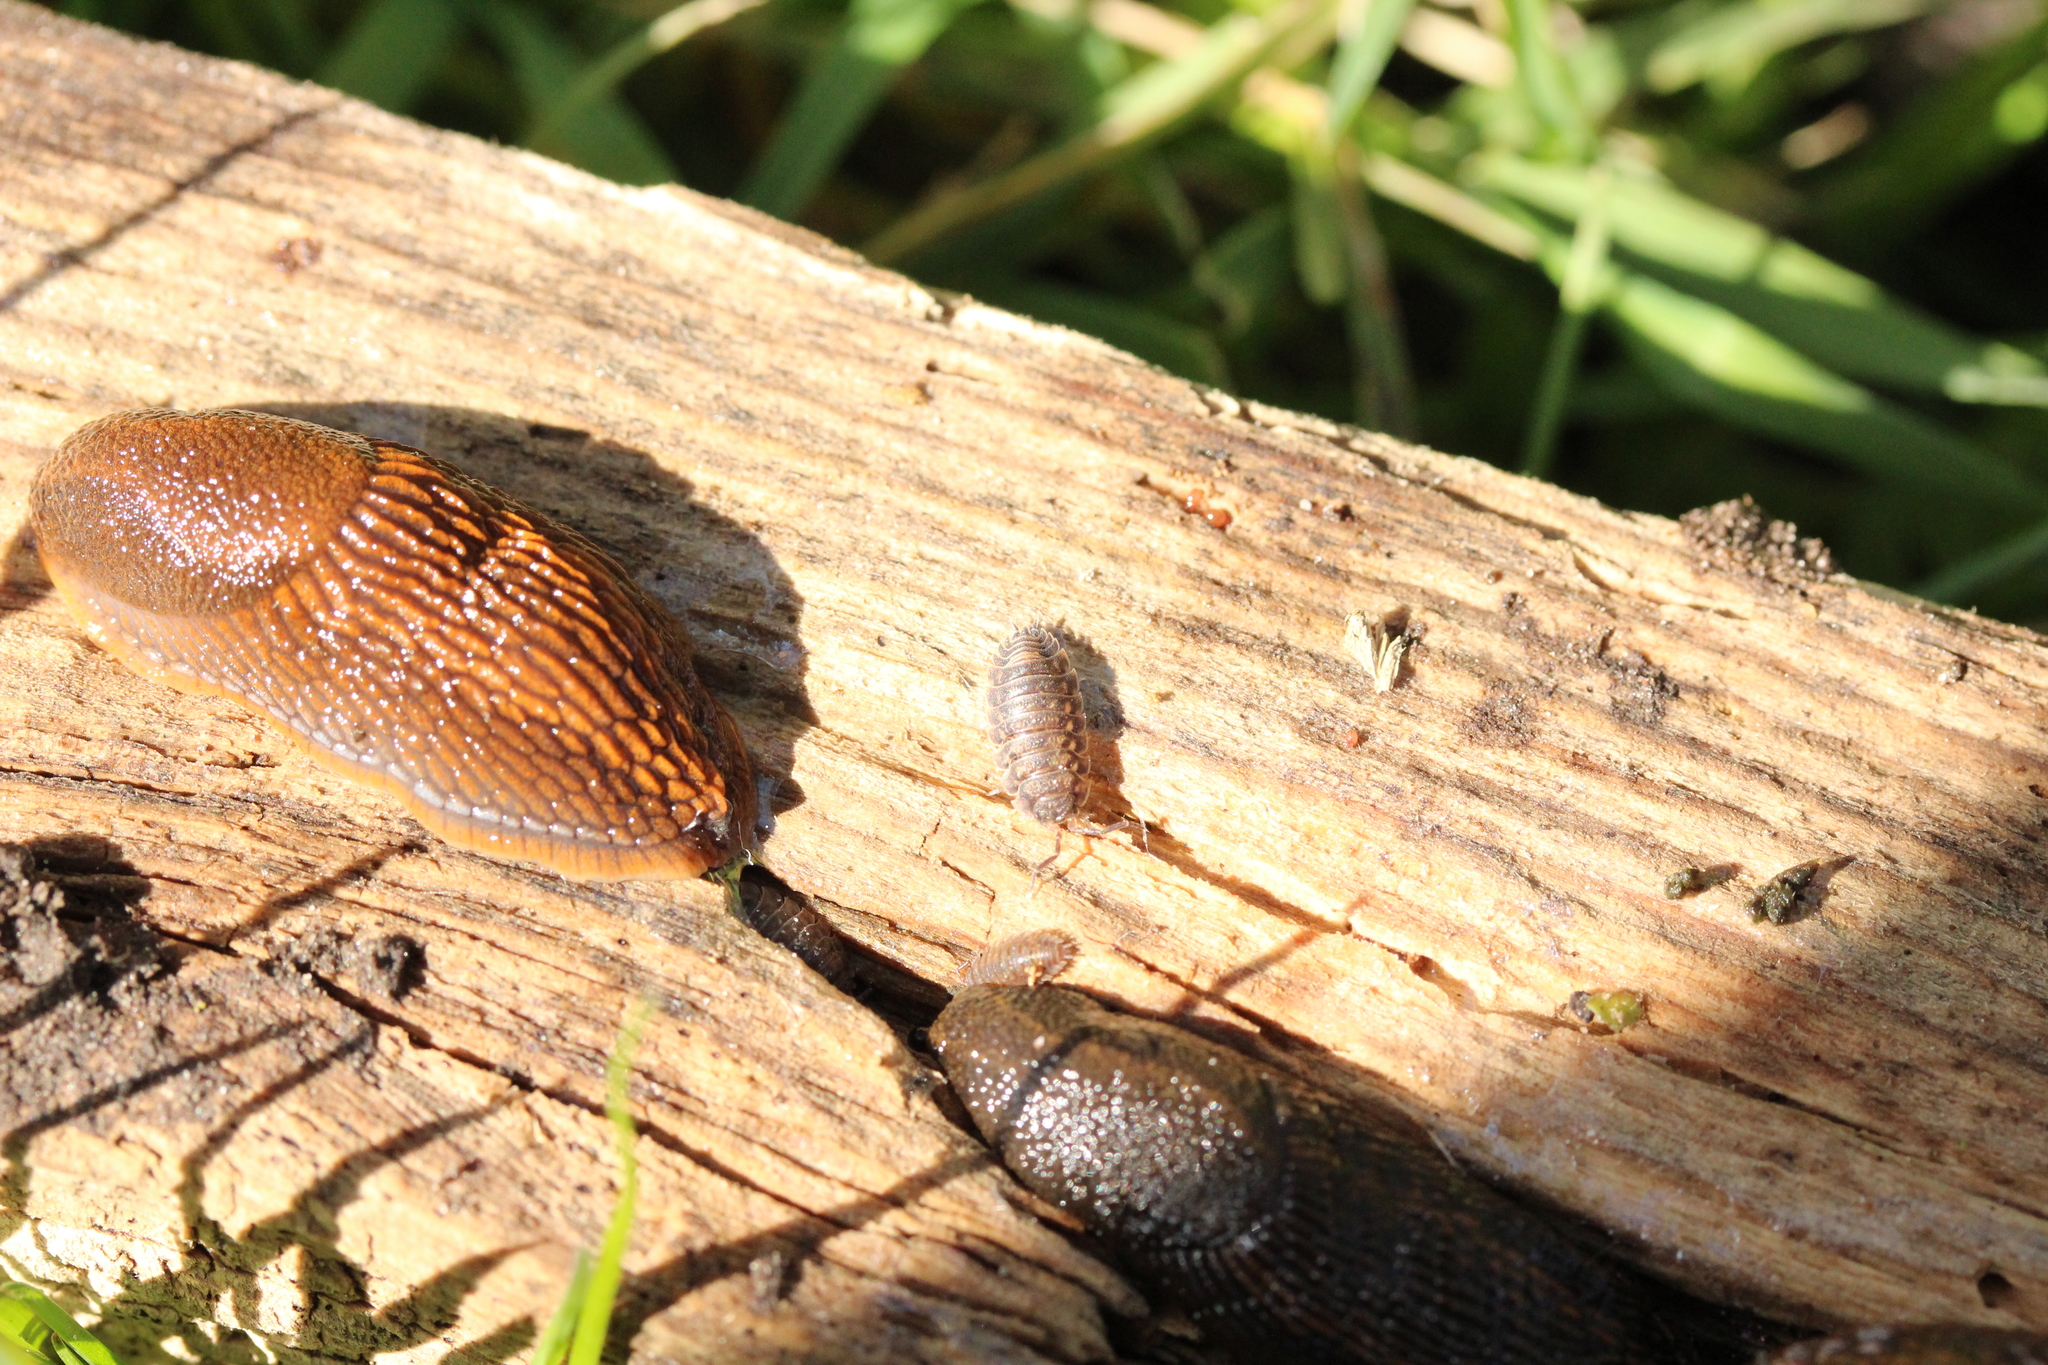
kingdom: Animalia
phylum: Arthropoda
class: Malacostraca
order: Isopoda
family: Oniscidae
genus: Oniscus
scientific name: Oniscus asellus
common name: Common shiny woodlouse
